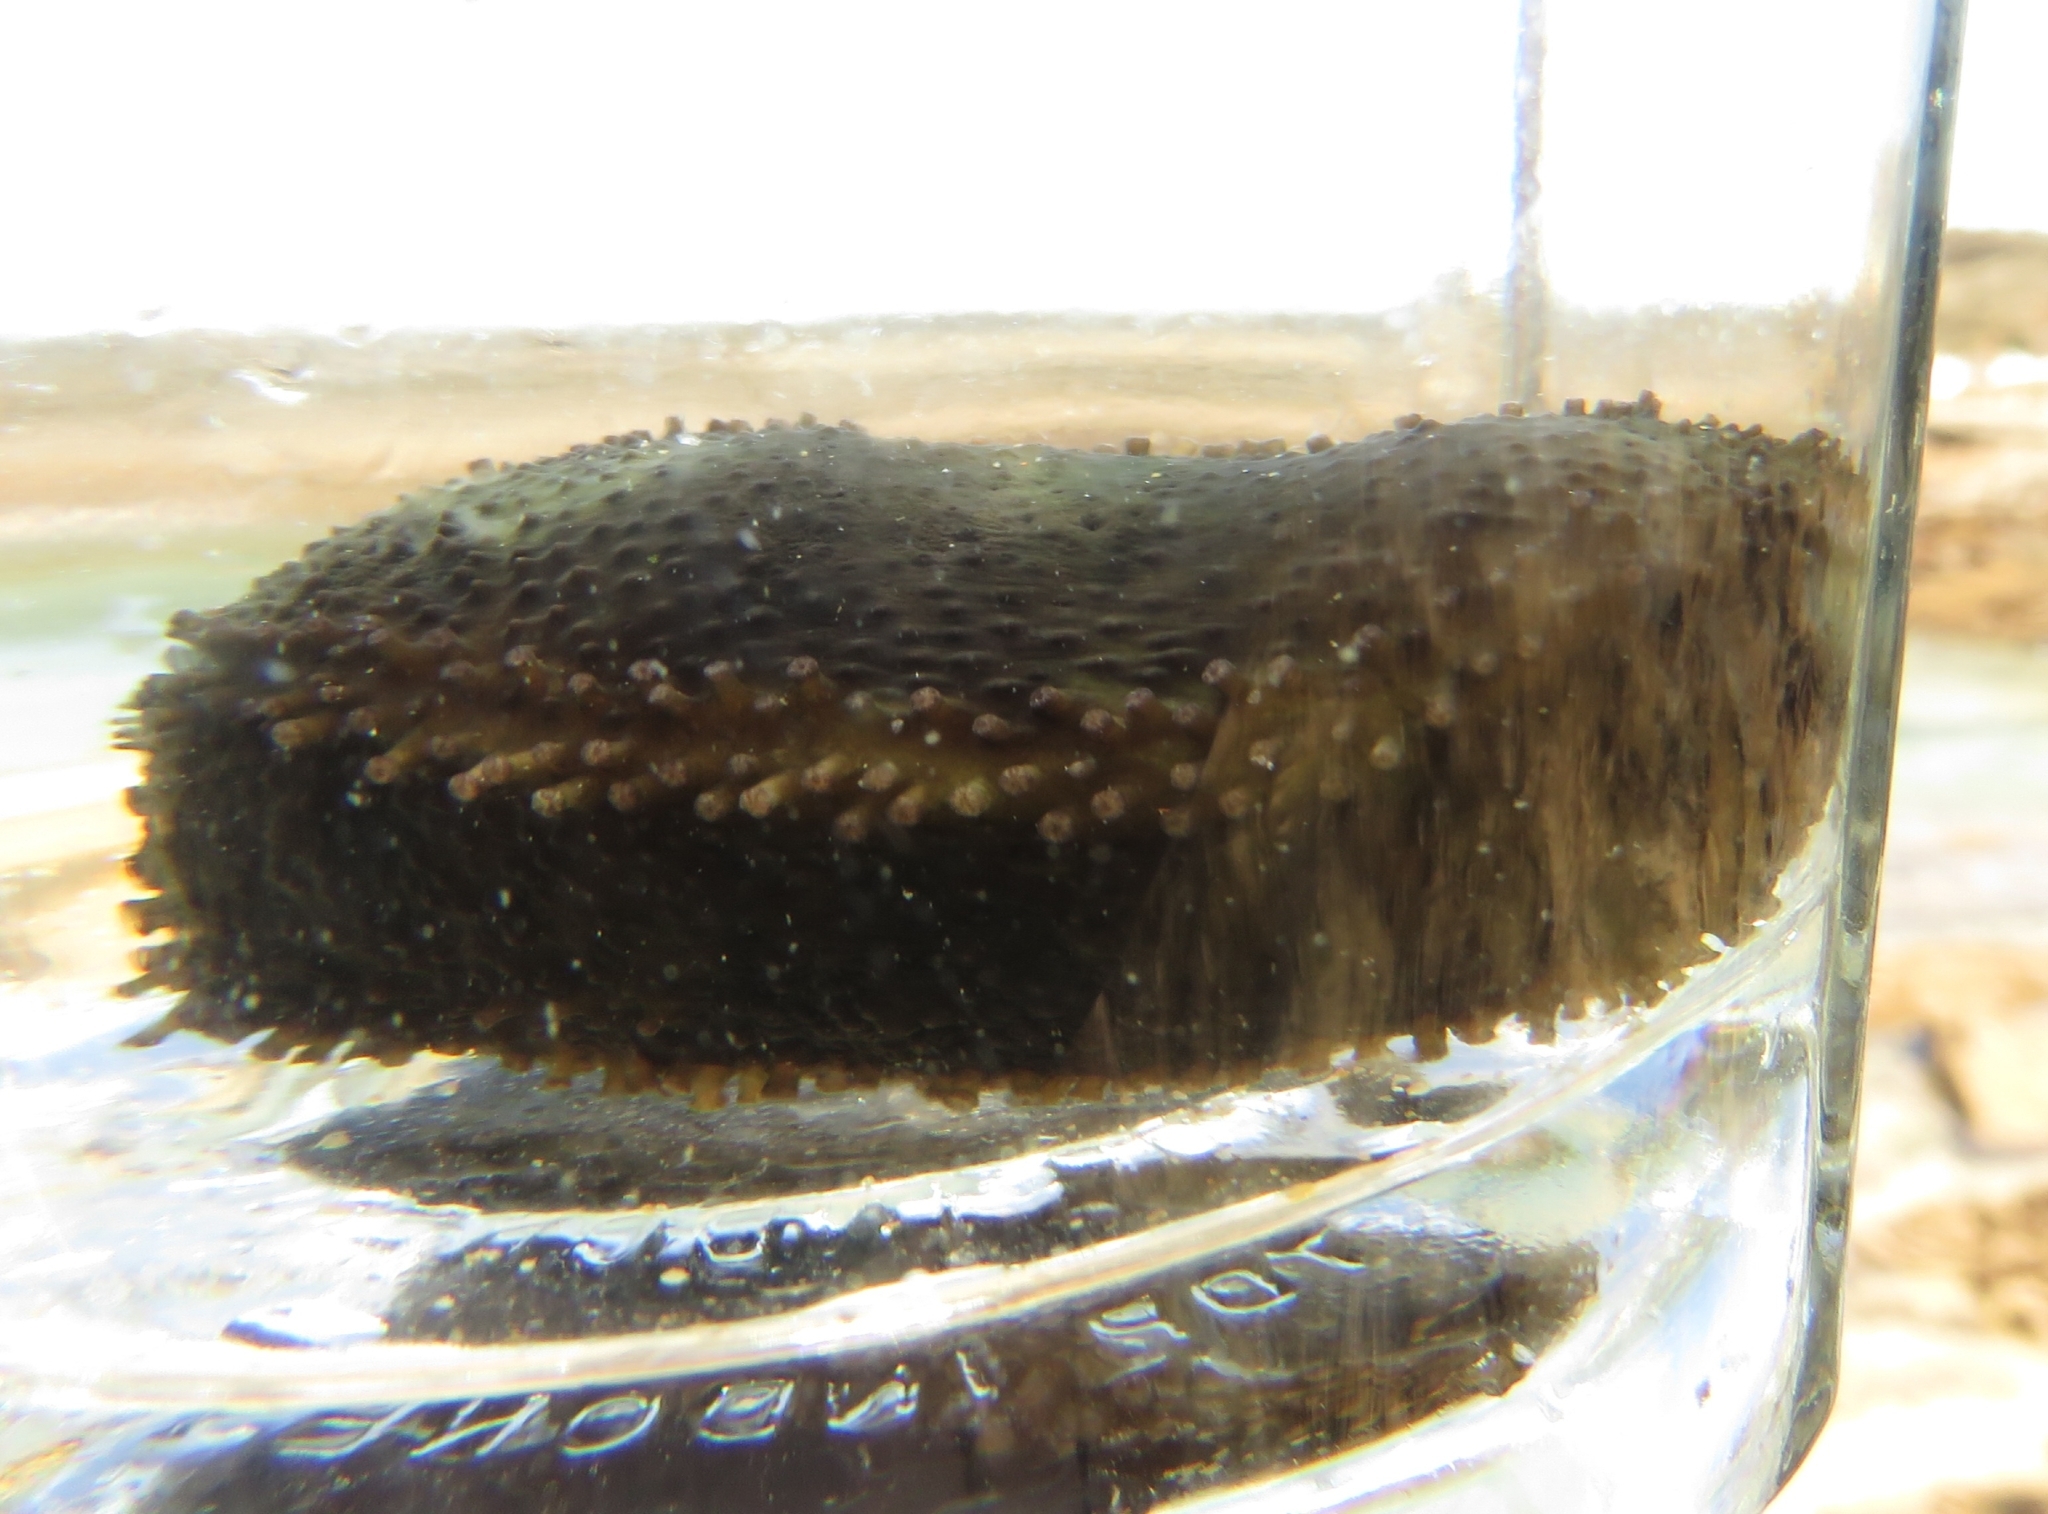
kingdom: Animalia
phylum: Echinodermata
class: Holothuroidea
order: Dendrochirotida
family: Cucumariidae
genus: Roweia
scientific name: Roweia frauenfeldi
